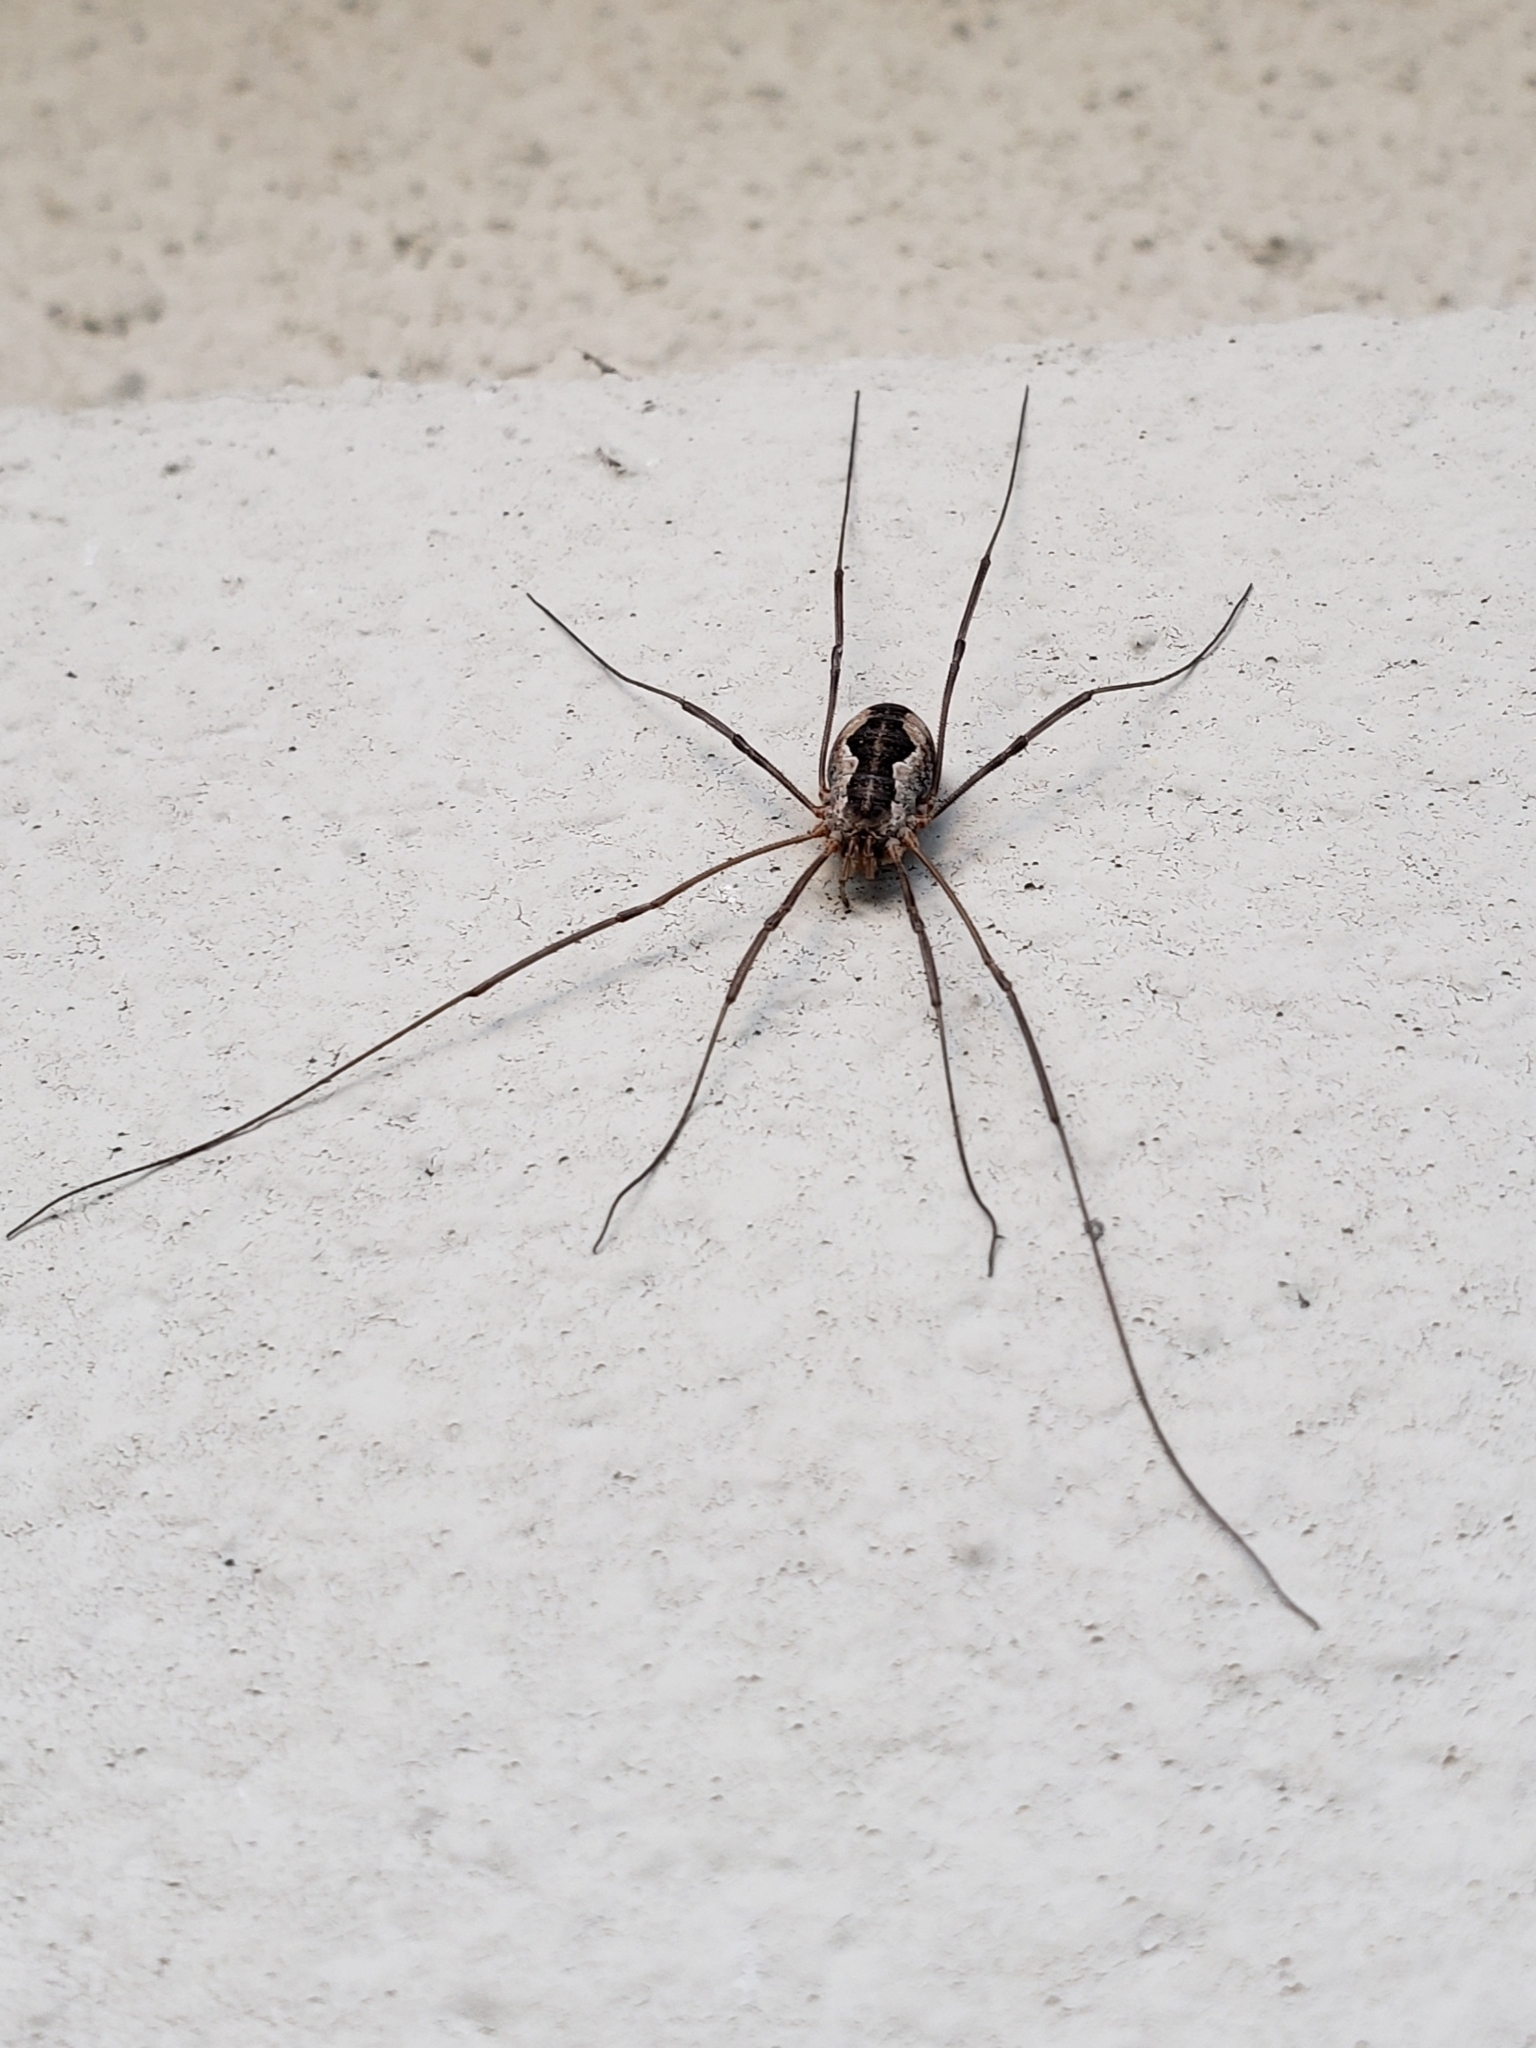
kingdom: Animalia
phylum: Arthropoda
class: Arachnida
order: Opiliones
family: Phalangiidae
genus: Phalangium
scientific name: Phalangium opilio
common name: Daddy longleg
